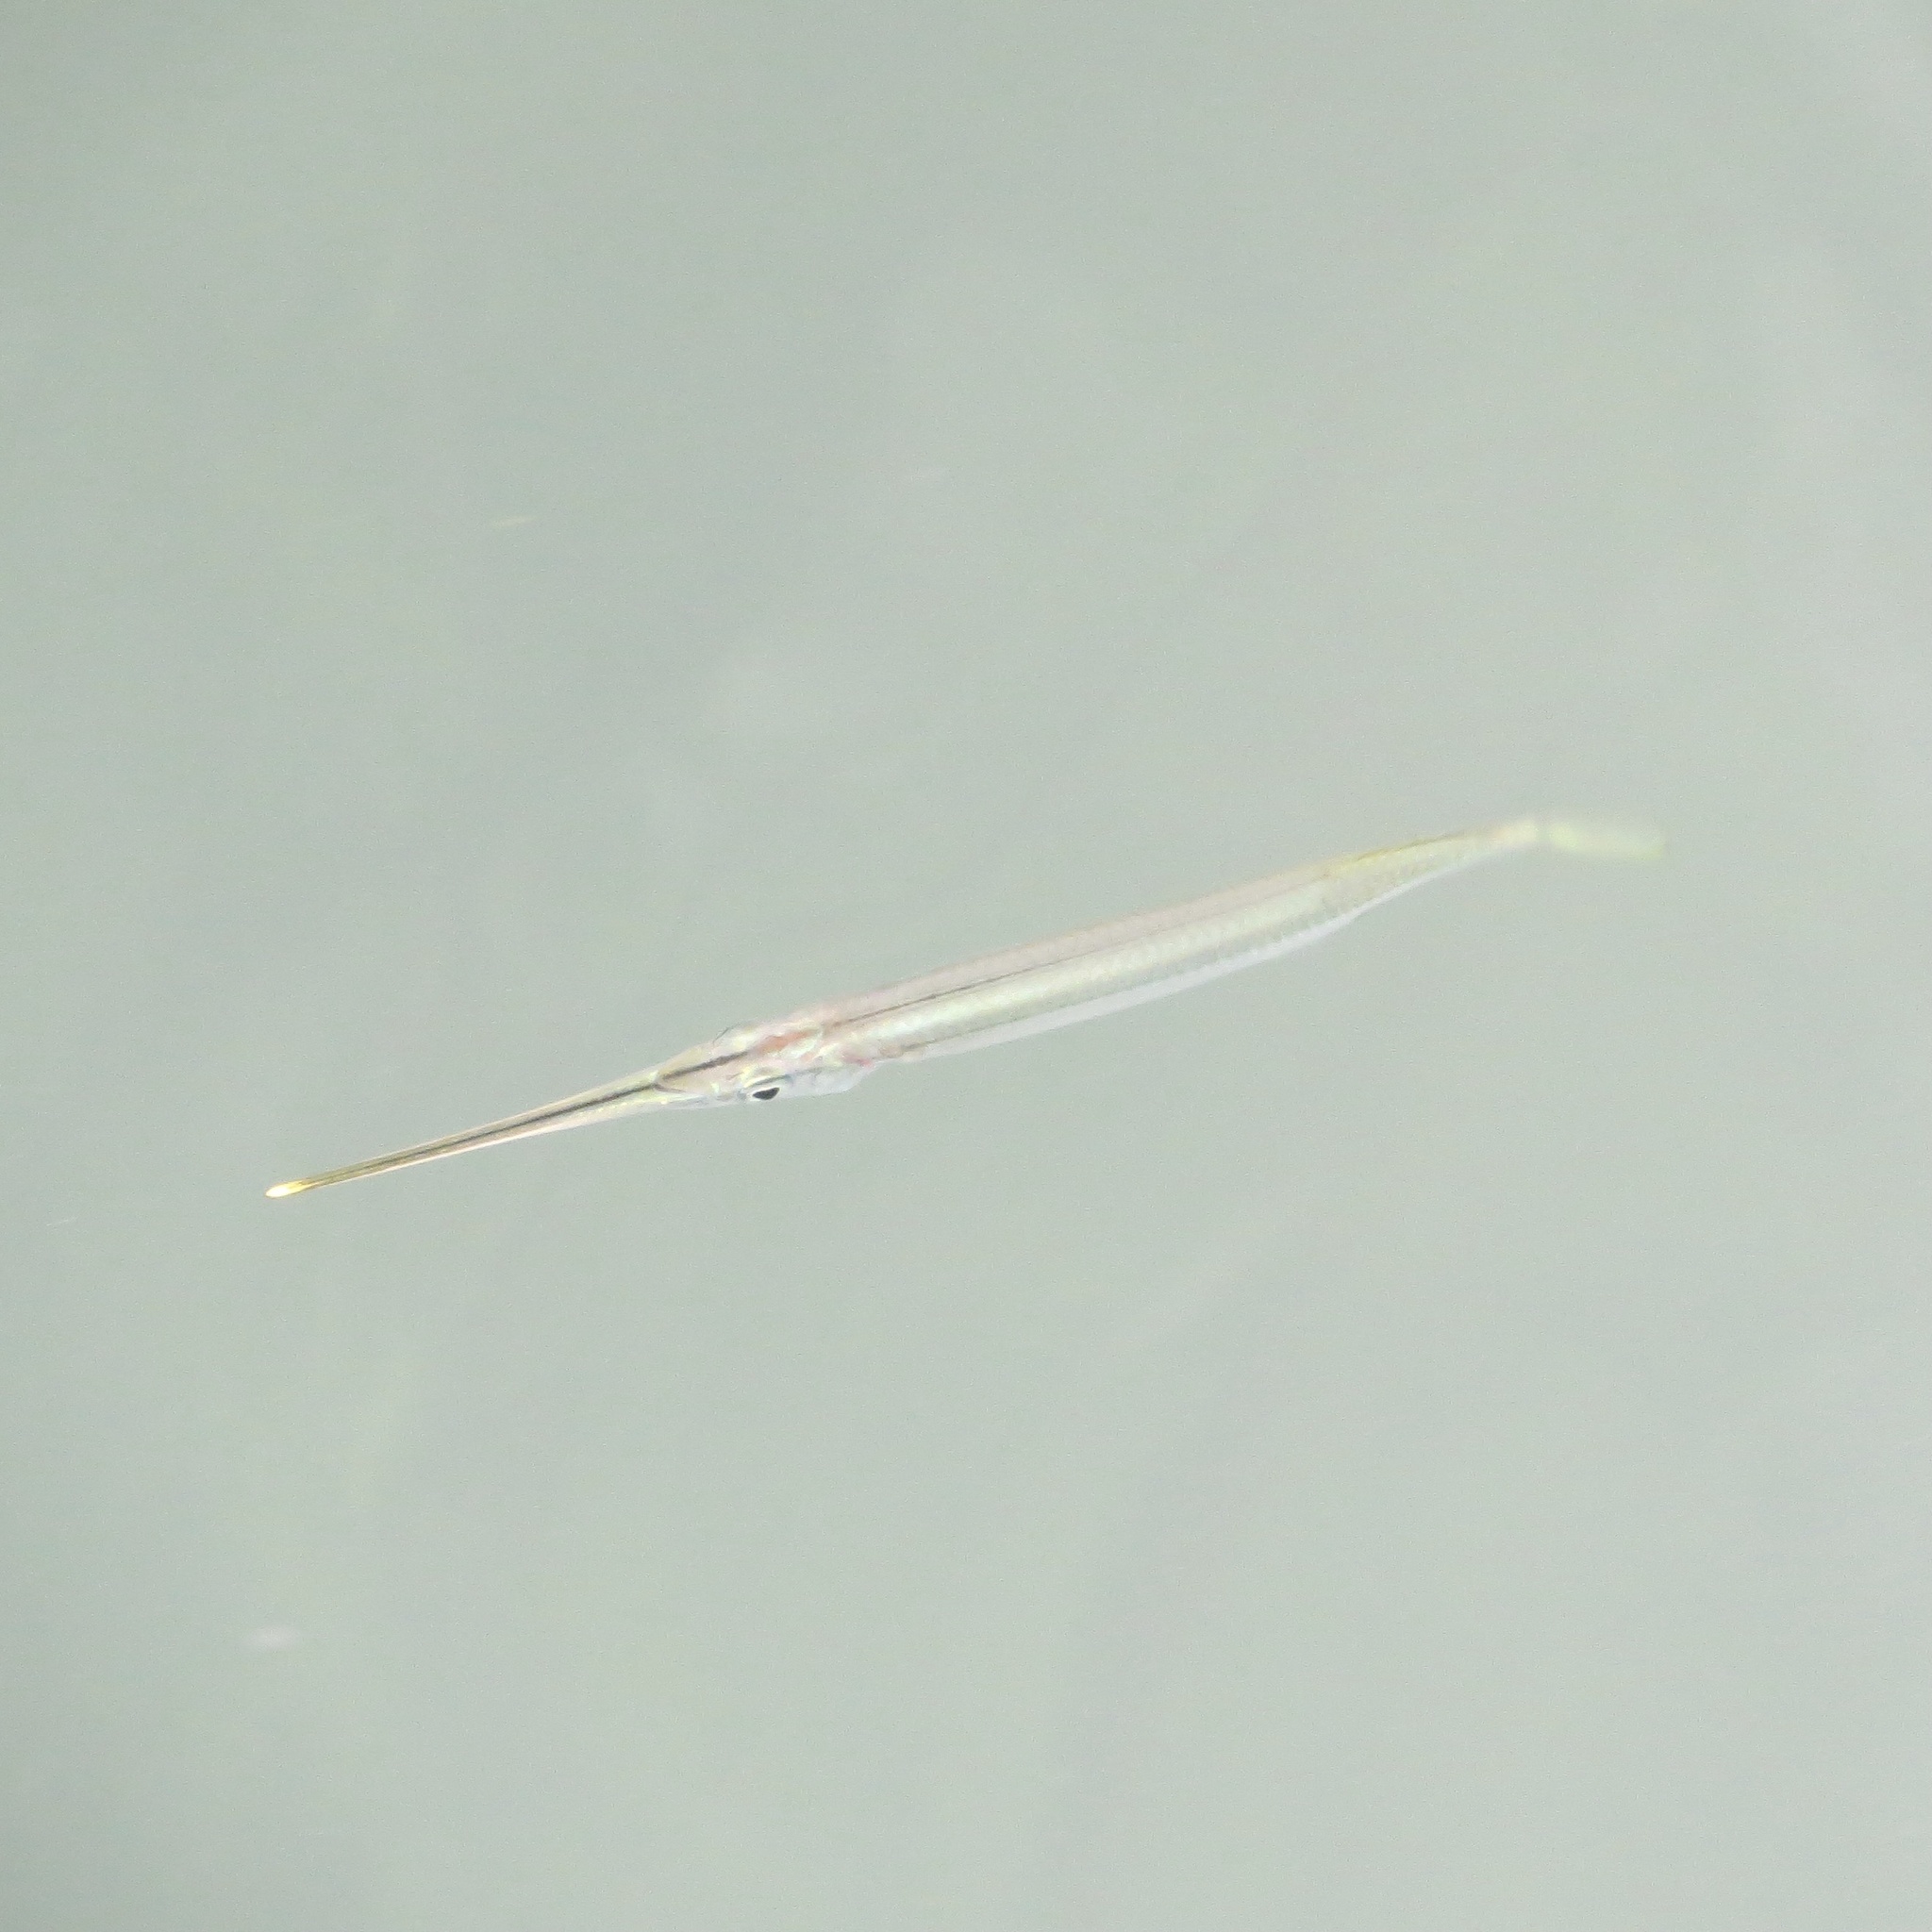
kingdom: Animalia
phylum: Chordata
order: Beloniformes
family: Zenarchopteridae
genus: Zenarchopterus
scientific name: Zenarchopterus buffonis
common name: Buffon's river-garfish
